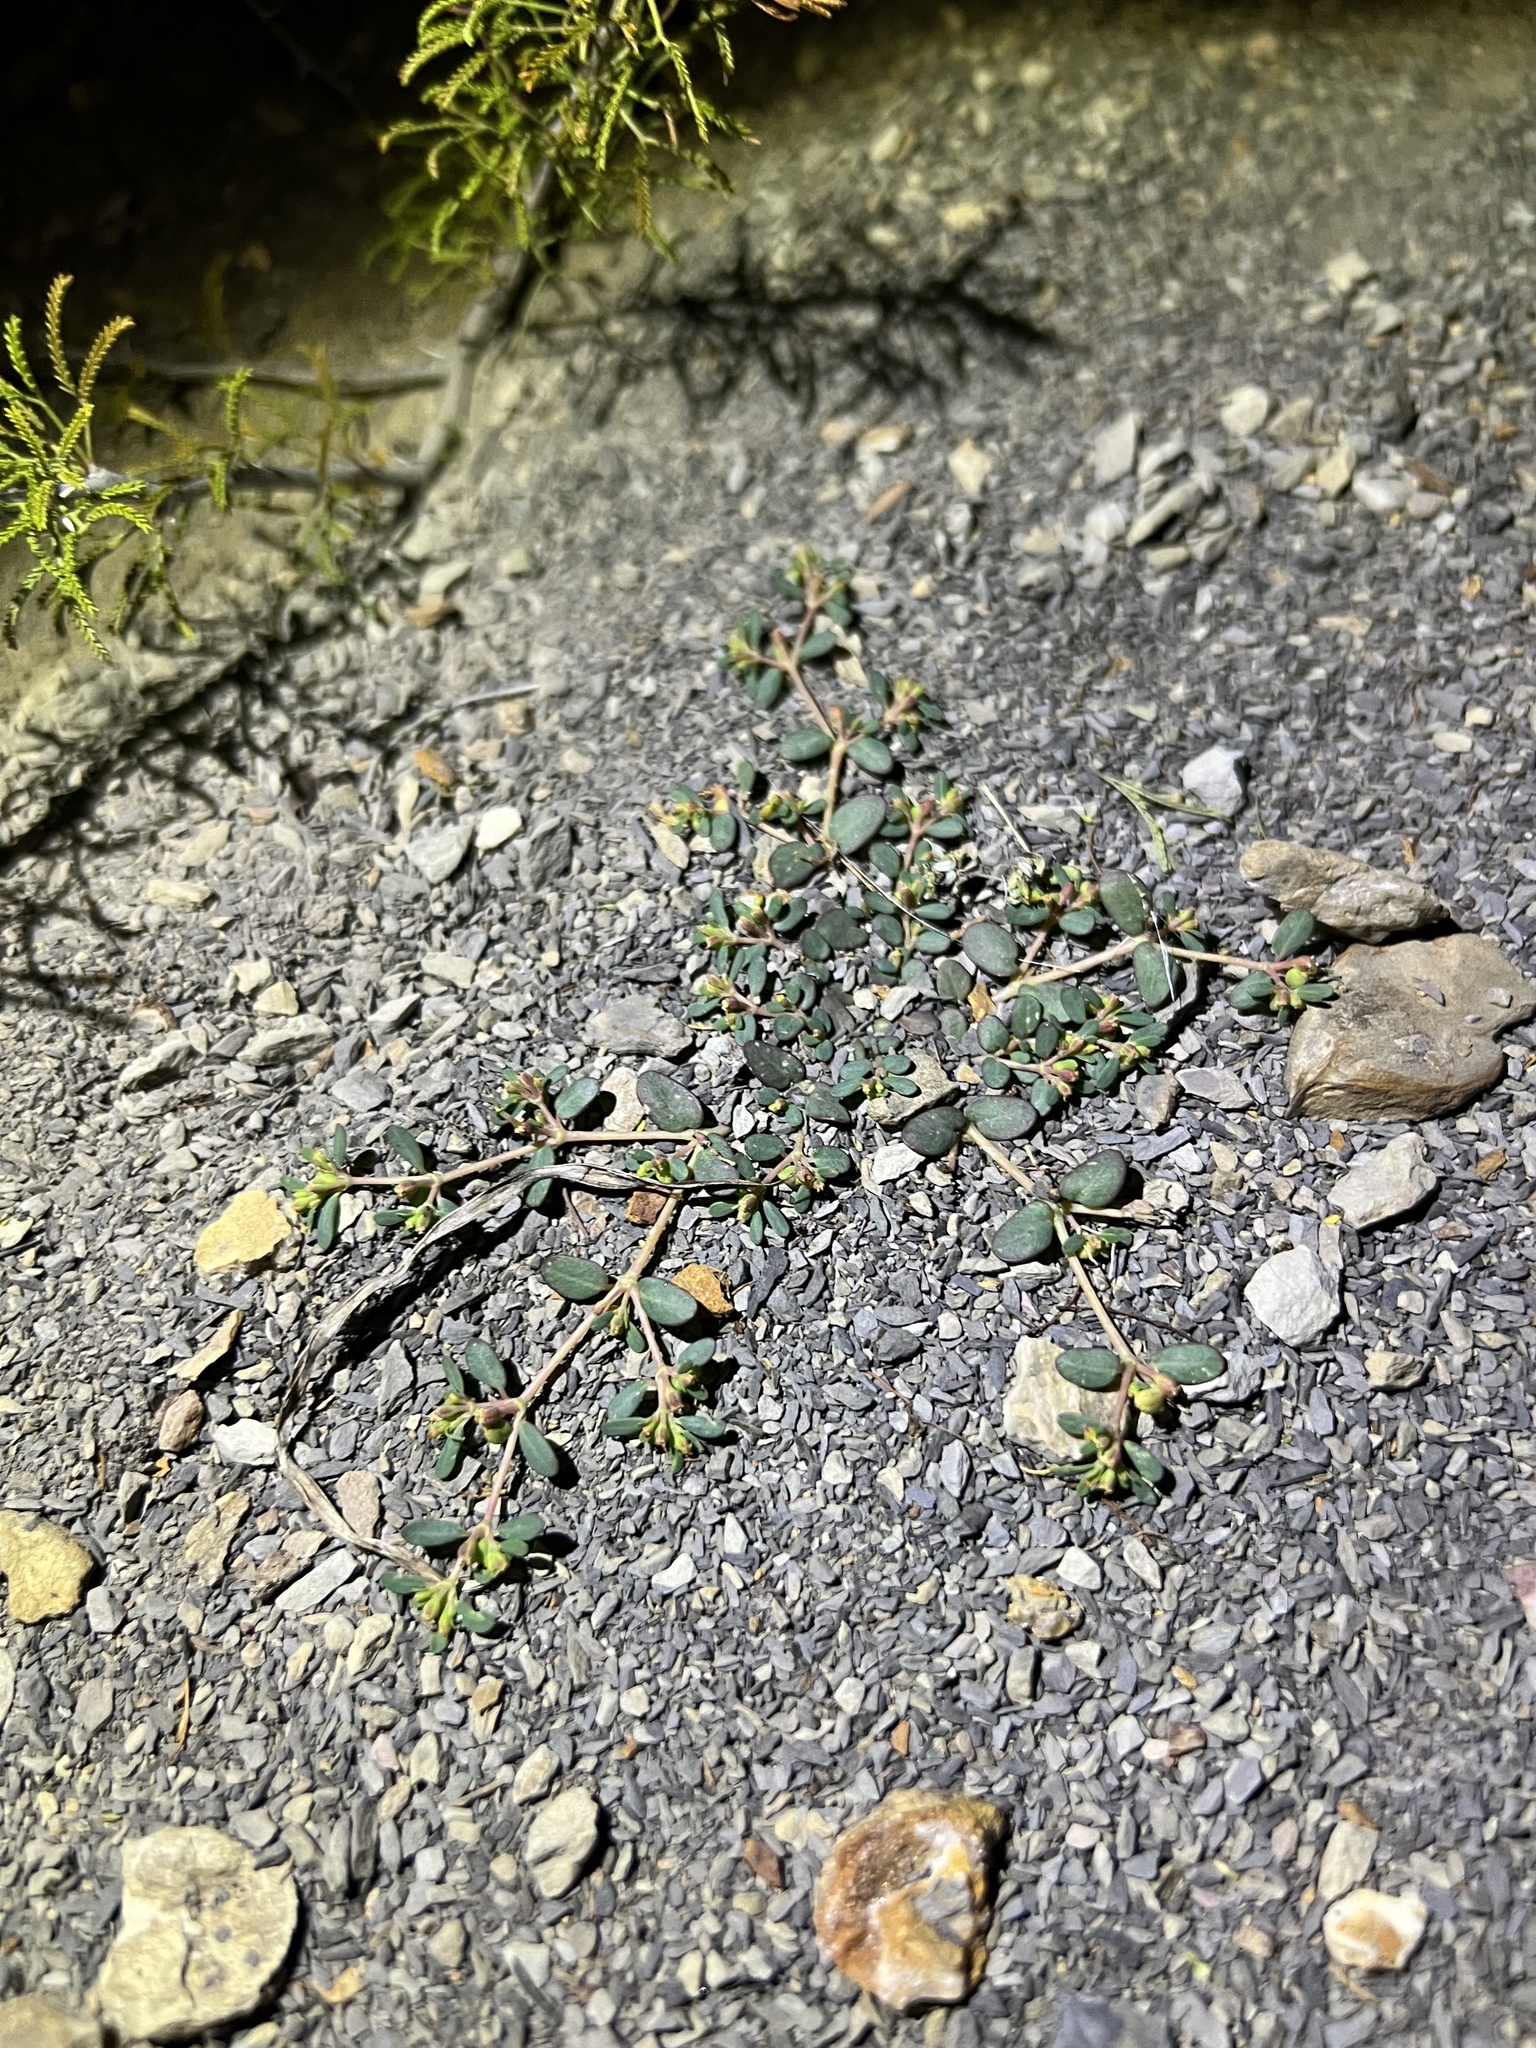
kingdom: Plantae
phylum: Tracheophyta
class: Magnoliopsida
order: Malpighiales
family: Euphorbiaceae
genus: Euphorbia
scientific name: Euphorbia cryptorubra
